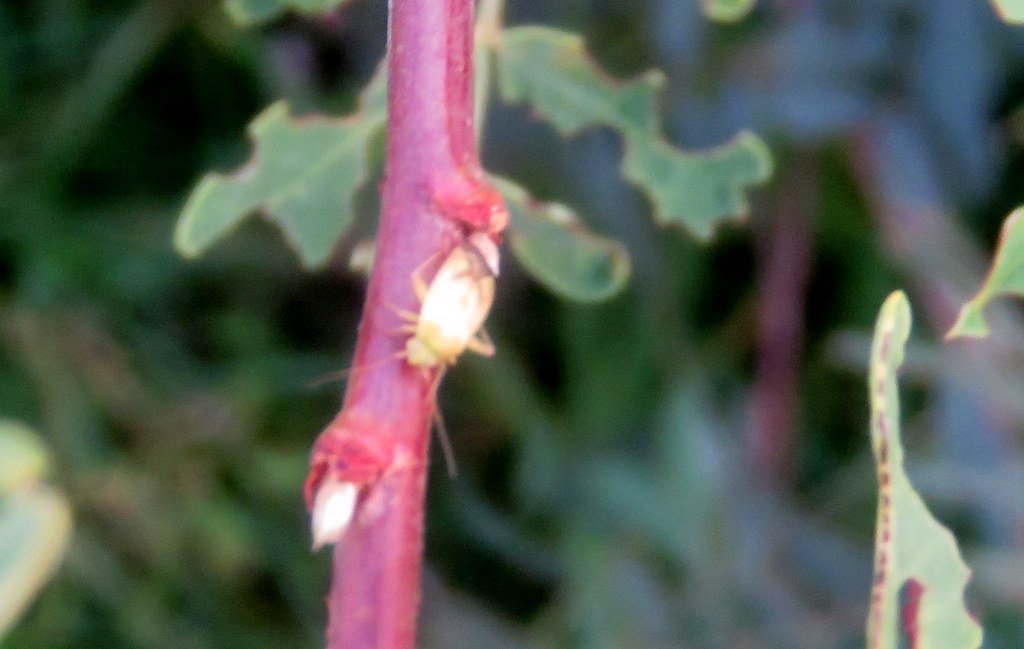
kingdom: Animalia
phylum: Arthropoda
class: Insecta
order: Hemiptera
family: Miridae
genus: Taylorilygus
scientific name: Taylorilygus apicalis
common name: Plant bug
